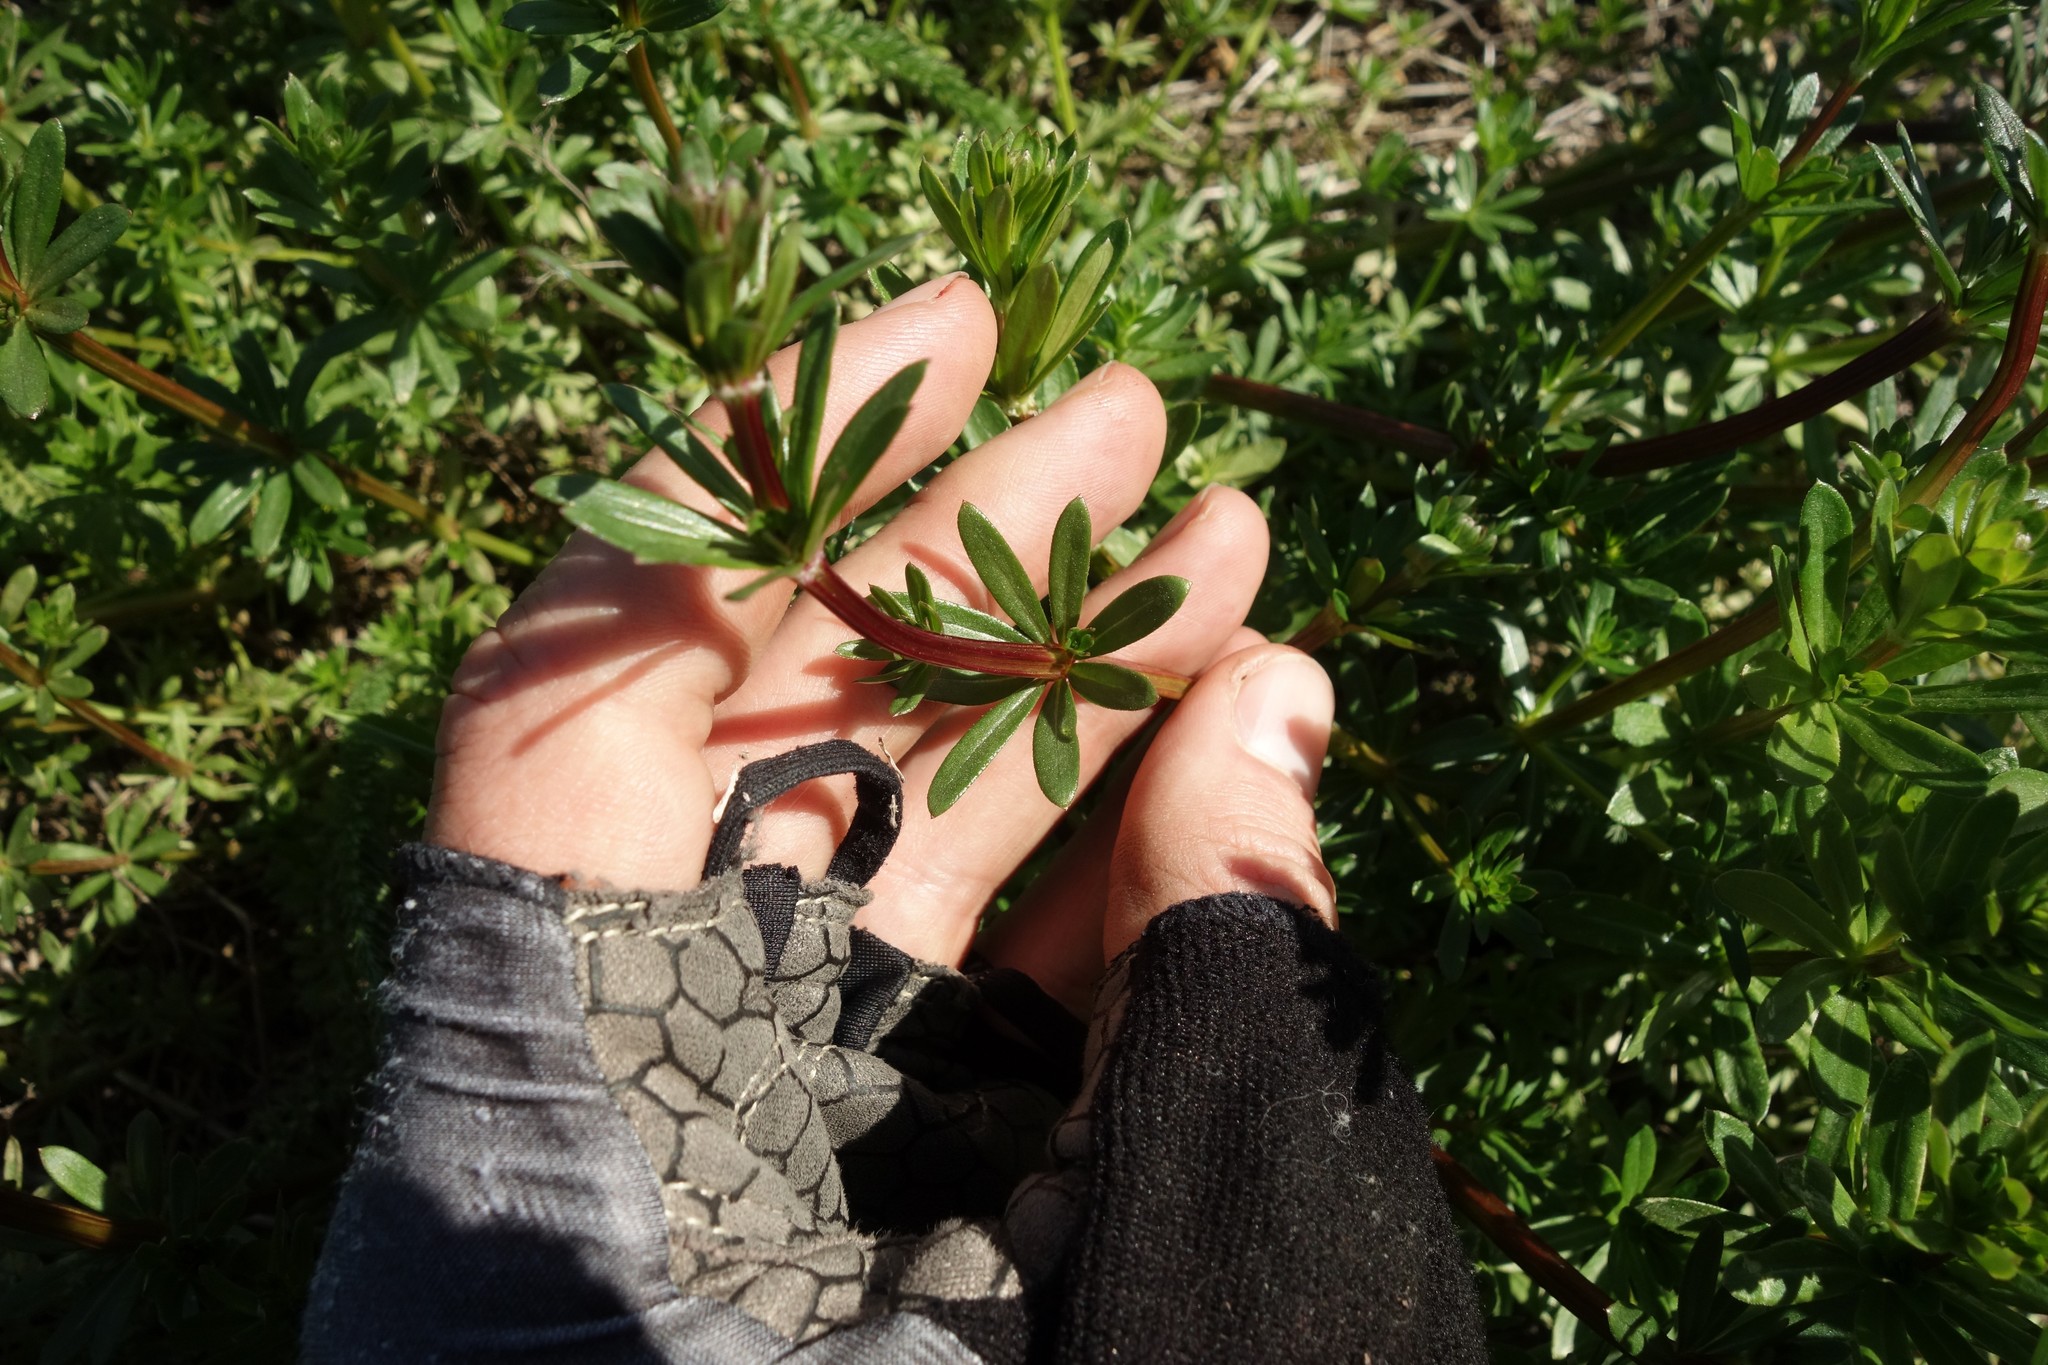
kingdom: Plantae
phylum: Tracheophyta
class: Magnoliopsida
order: Gentianales
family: Rubiaceae
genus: Galium
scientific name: Galium mollugo
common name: Hedge bedstraw
